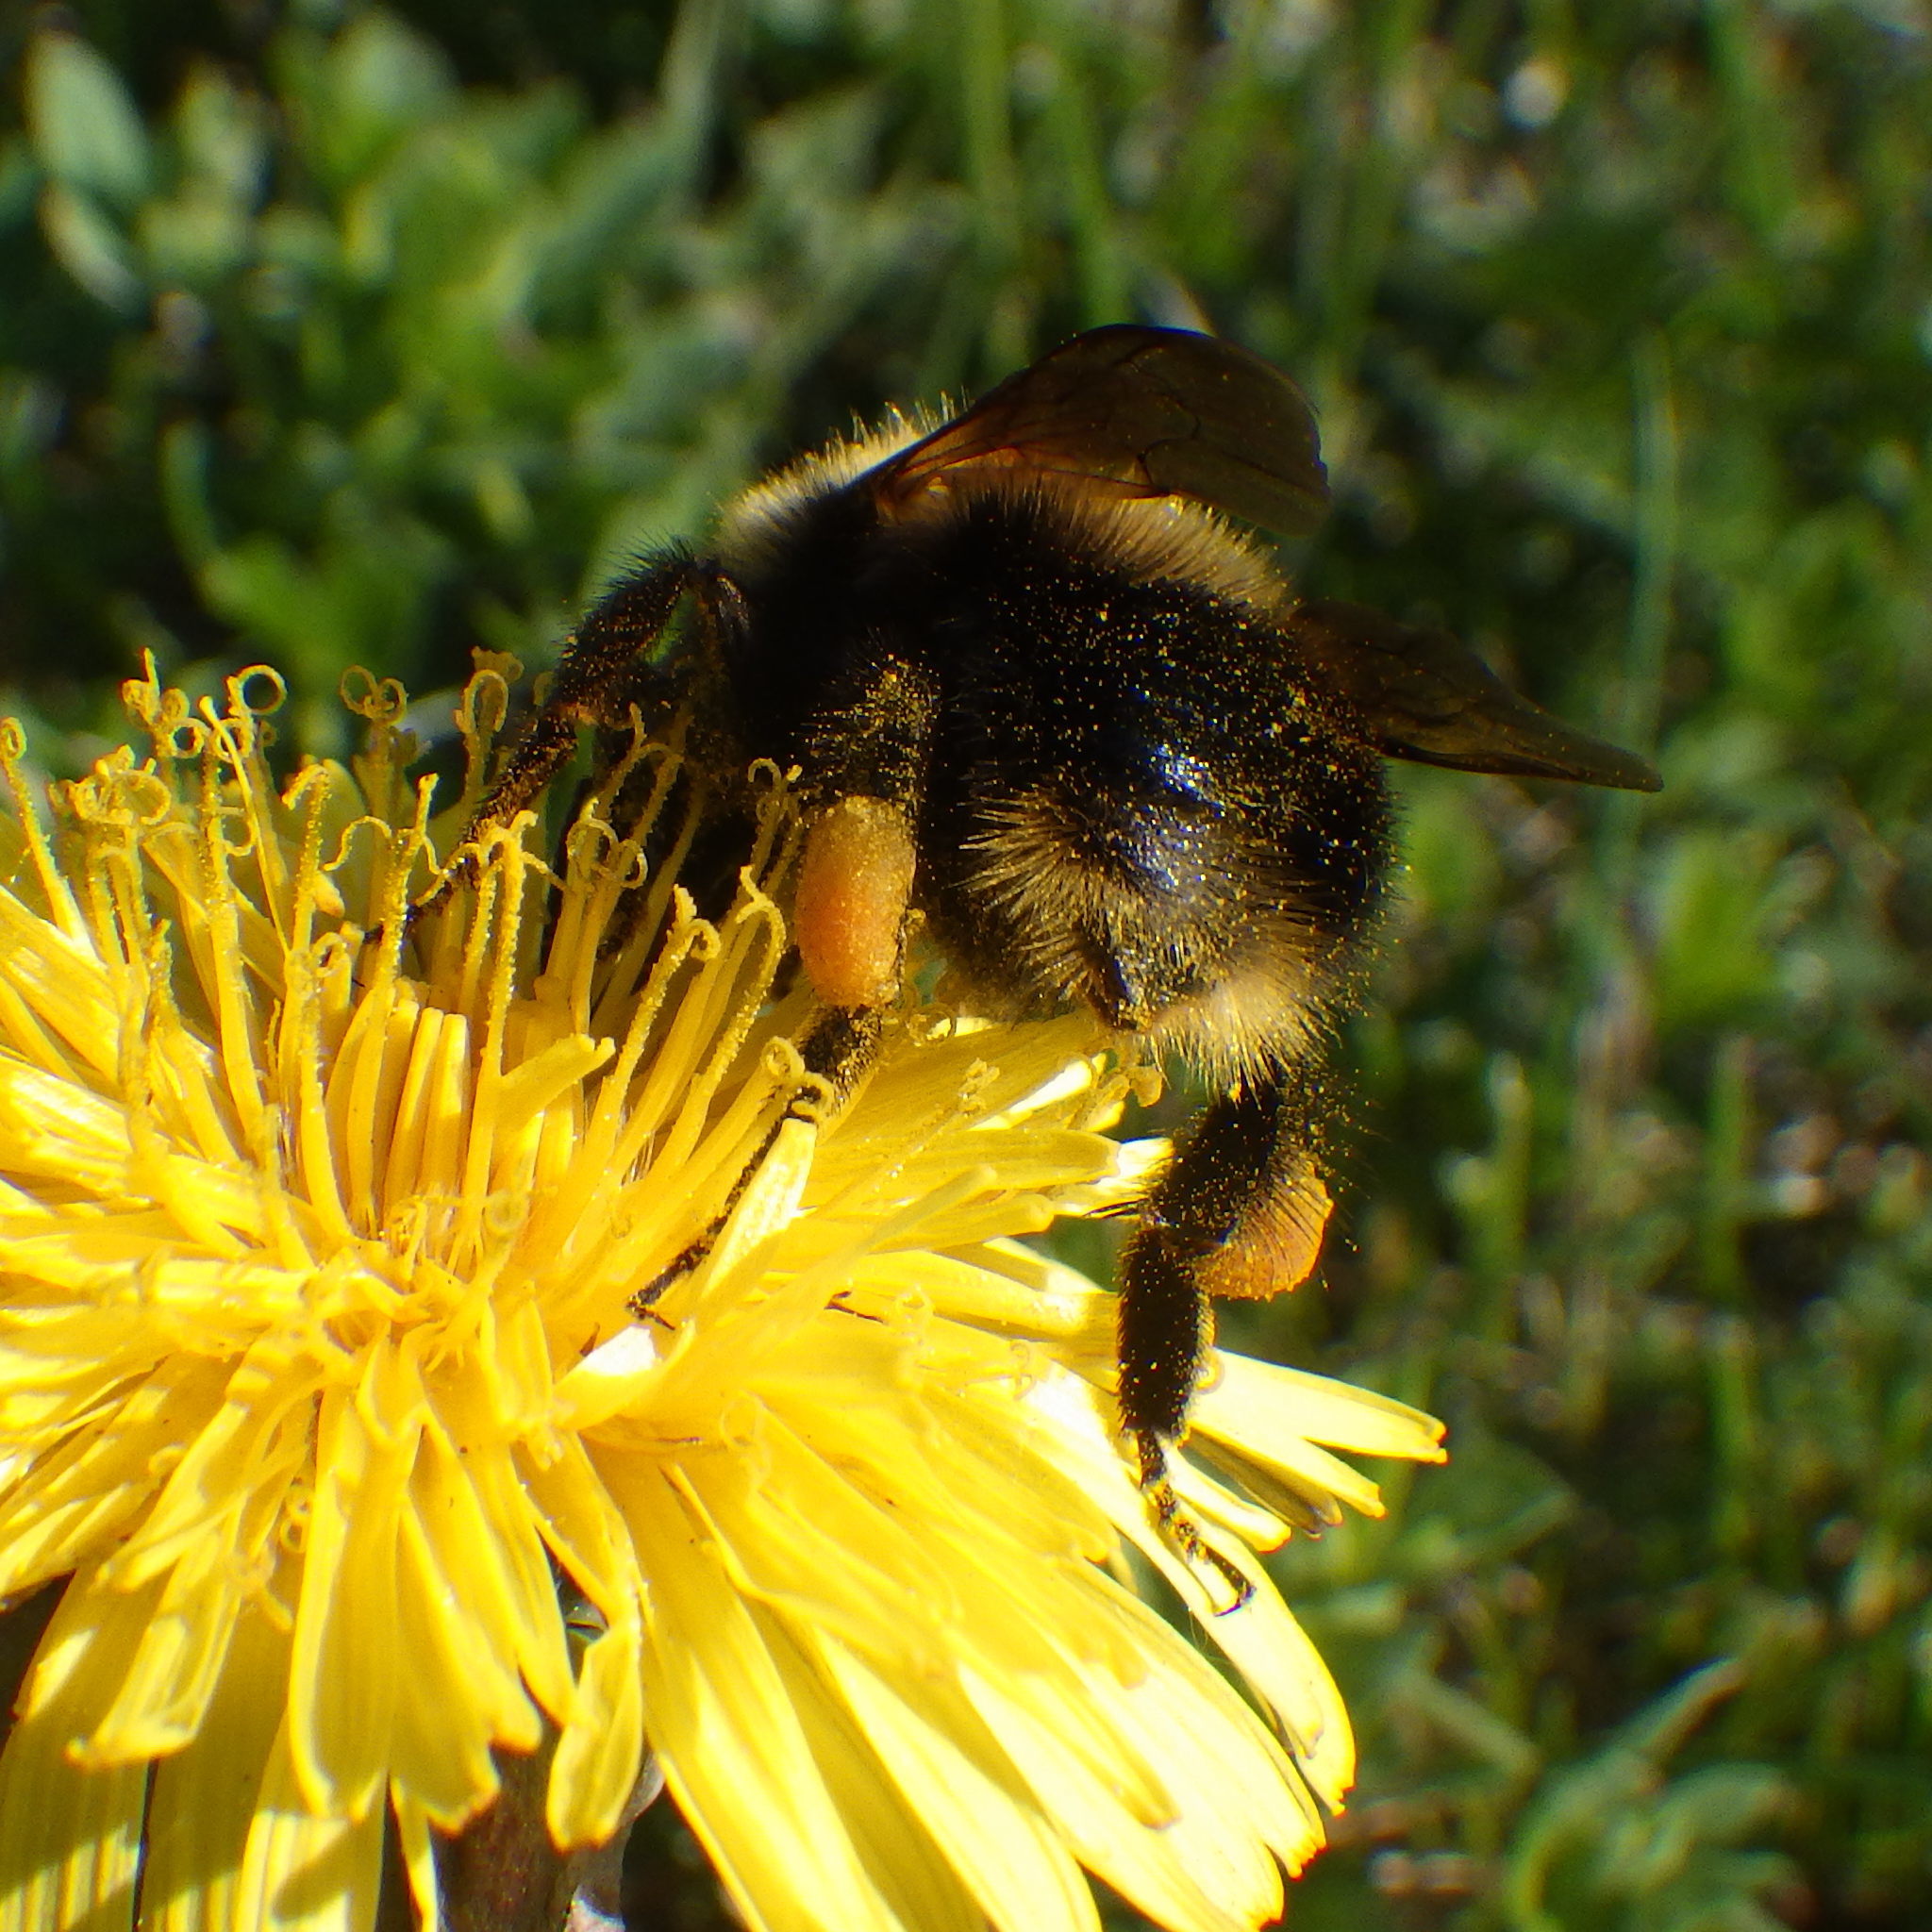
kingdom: Animalia
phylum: Arthropoda
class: Insecta
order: Hymenoptera
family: Apidae
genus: Bombus
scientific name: Bombus perplexus
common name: Confusing bumble bee
